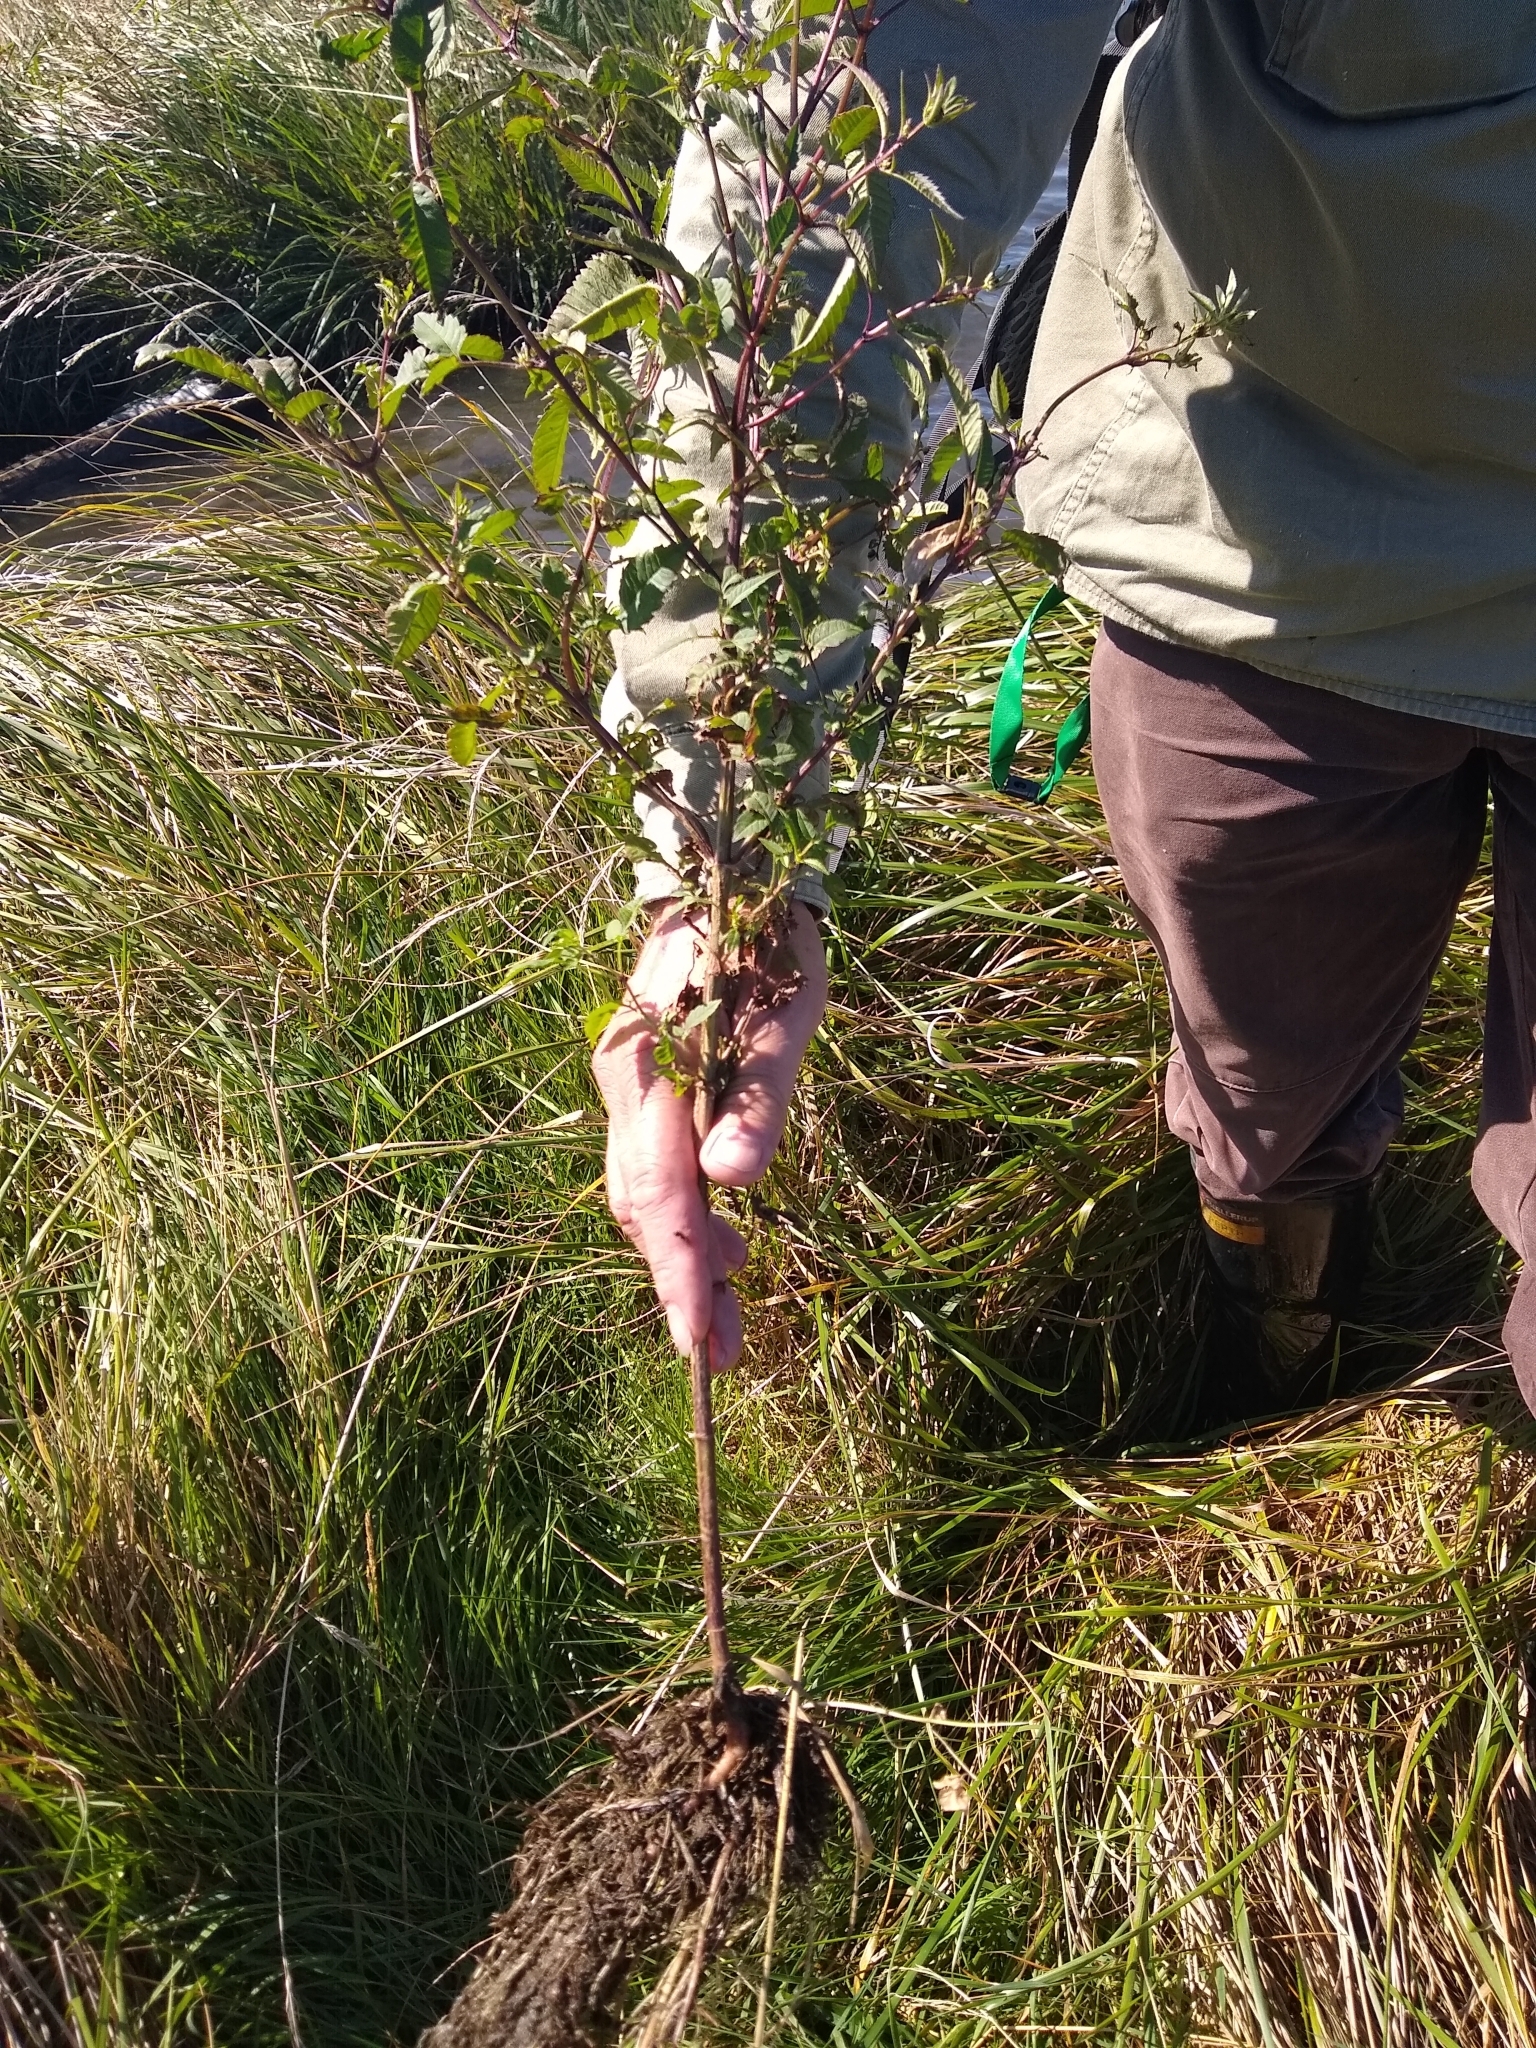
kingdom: Plantae
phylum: Tracheophyta
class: Magnoliopsida
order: Asterales
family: Asteraceae
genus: Bidens
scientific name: Bidens frondosa
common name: Beggarticks
